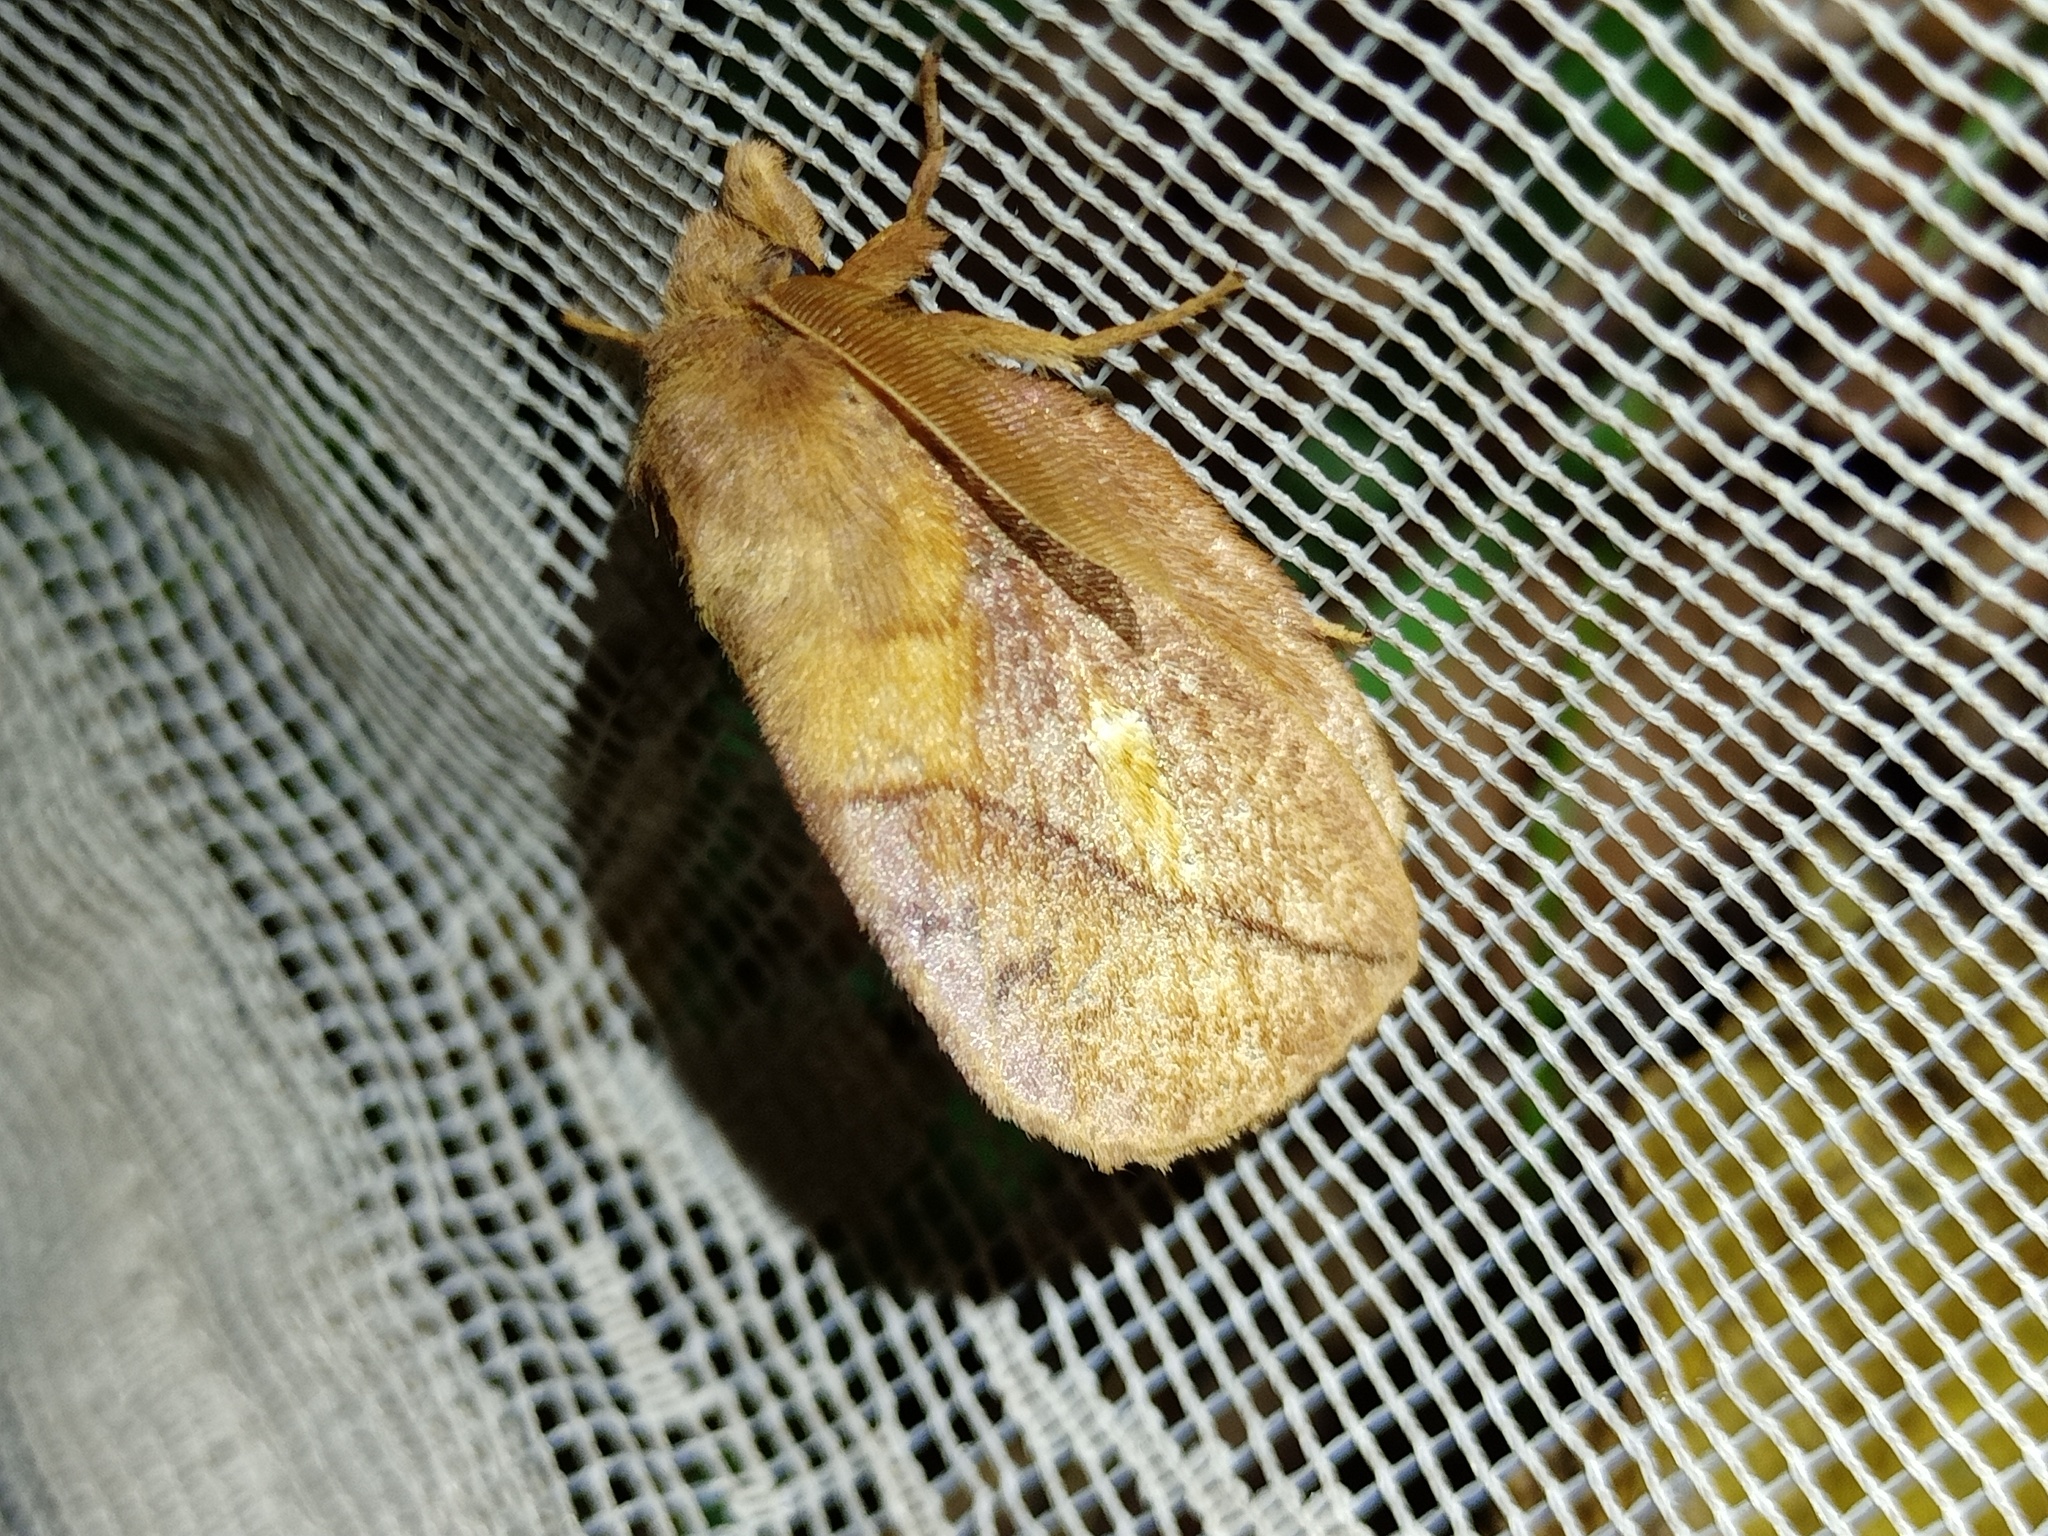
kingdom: Animalia
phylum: Arthropoda
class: Insecta
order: Lepidoptera
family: Lasiocampidae
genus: Euthrix
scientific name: Euthrix potatoria
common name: Drinker
